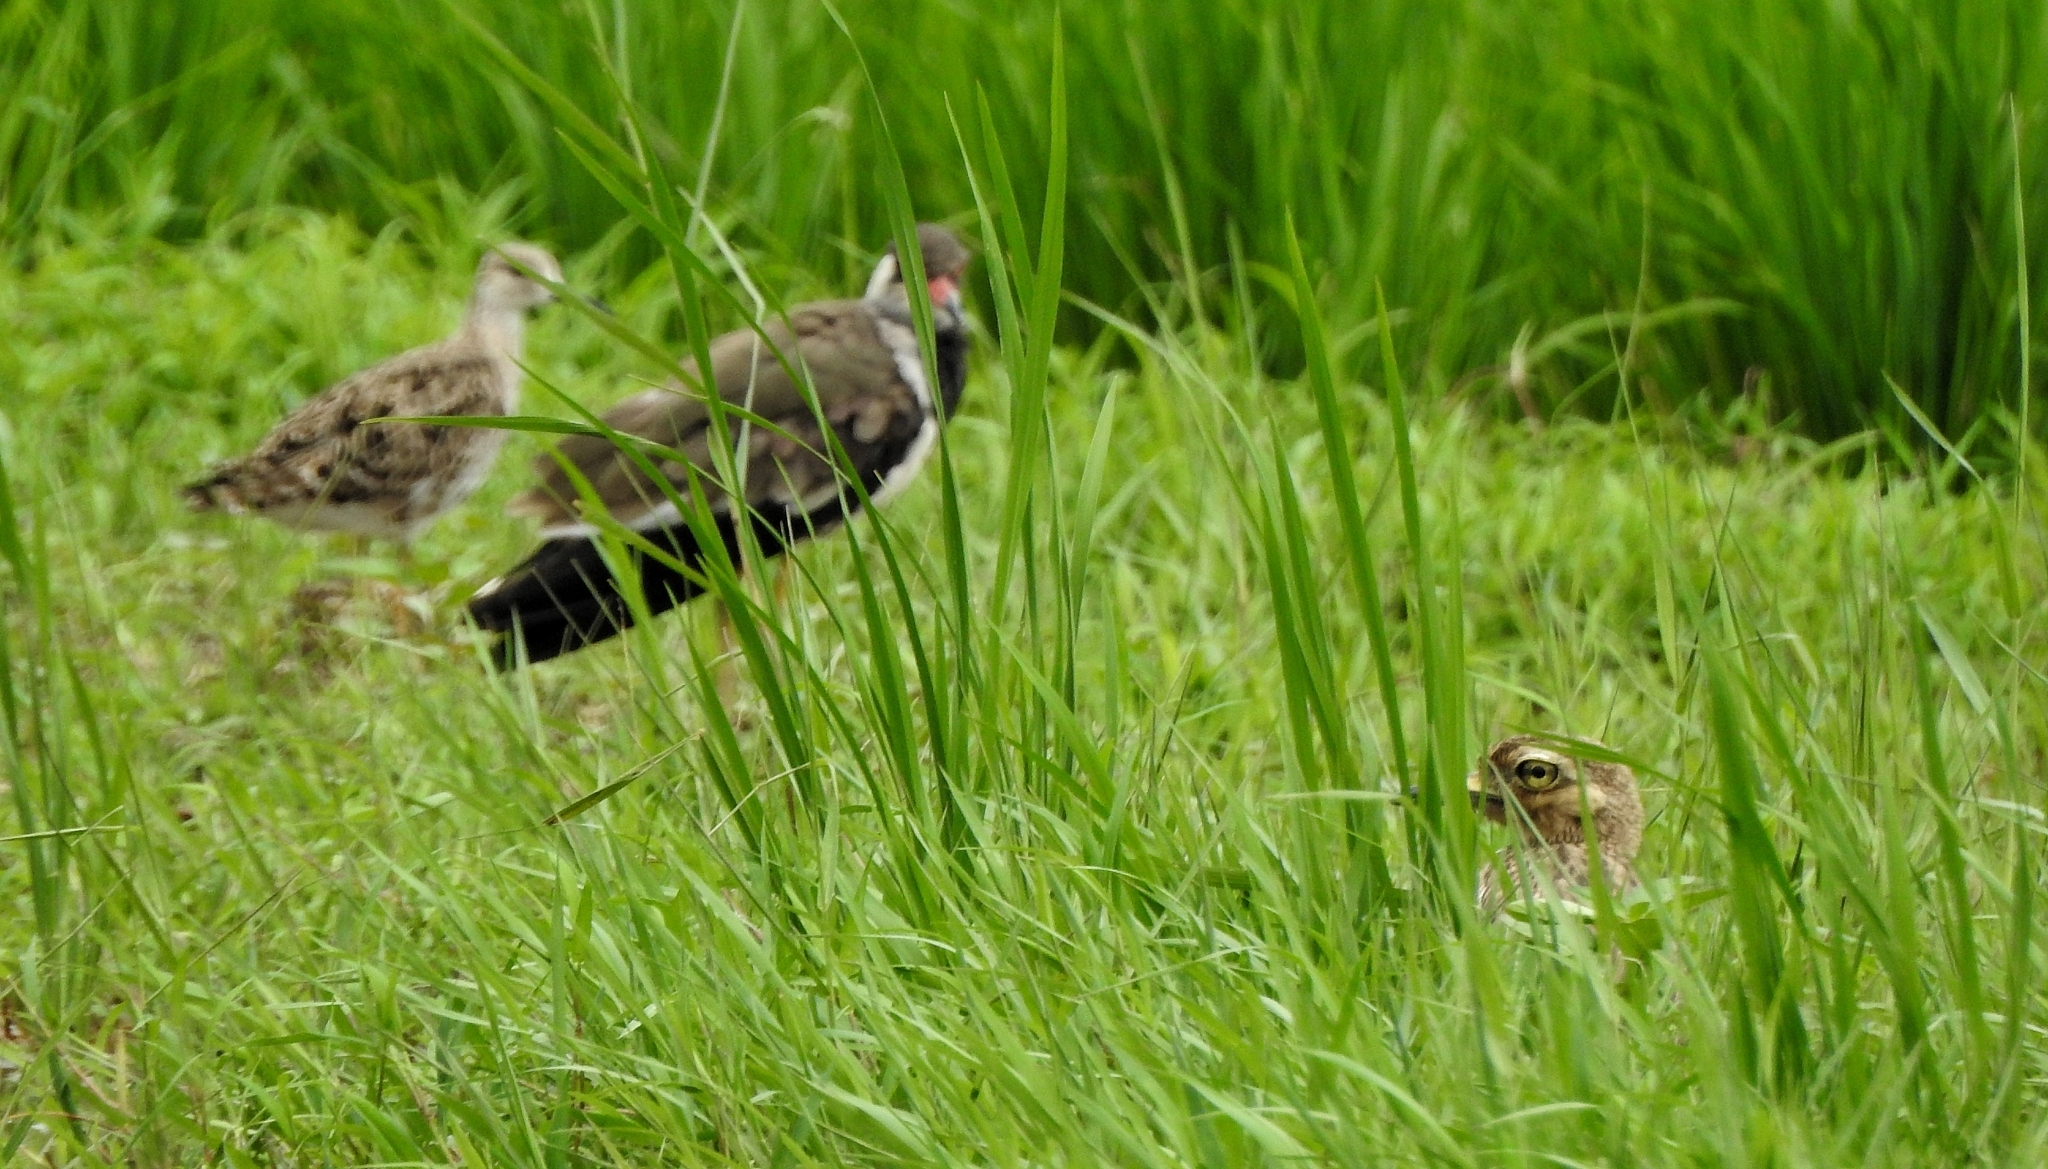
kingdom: Animalia
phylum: Chordata
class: Aves
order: Charadriiformes
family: Scolopacidae
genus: Calidris
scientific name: Calidris pugnax
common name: Ruff
